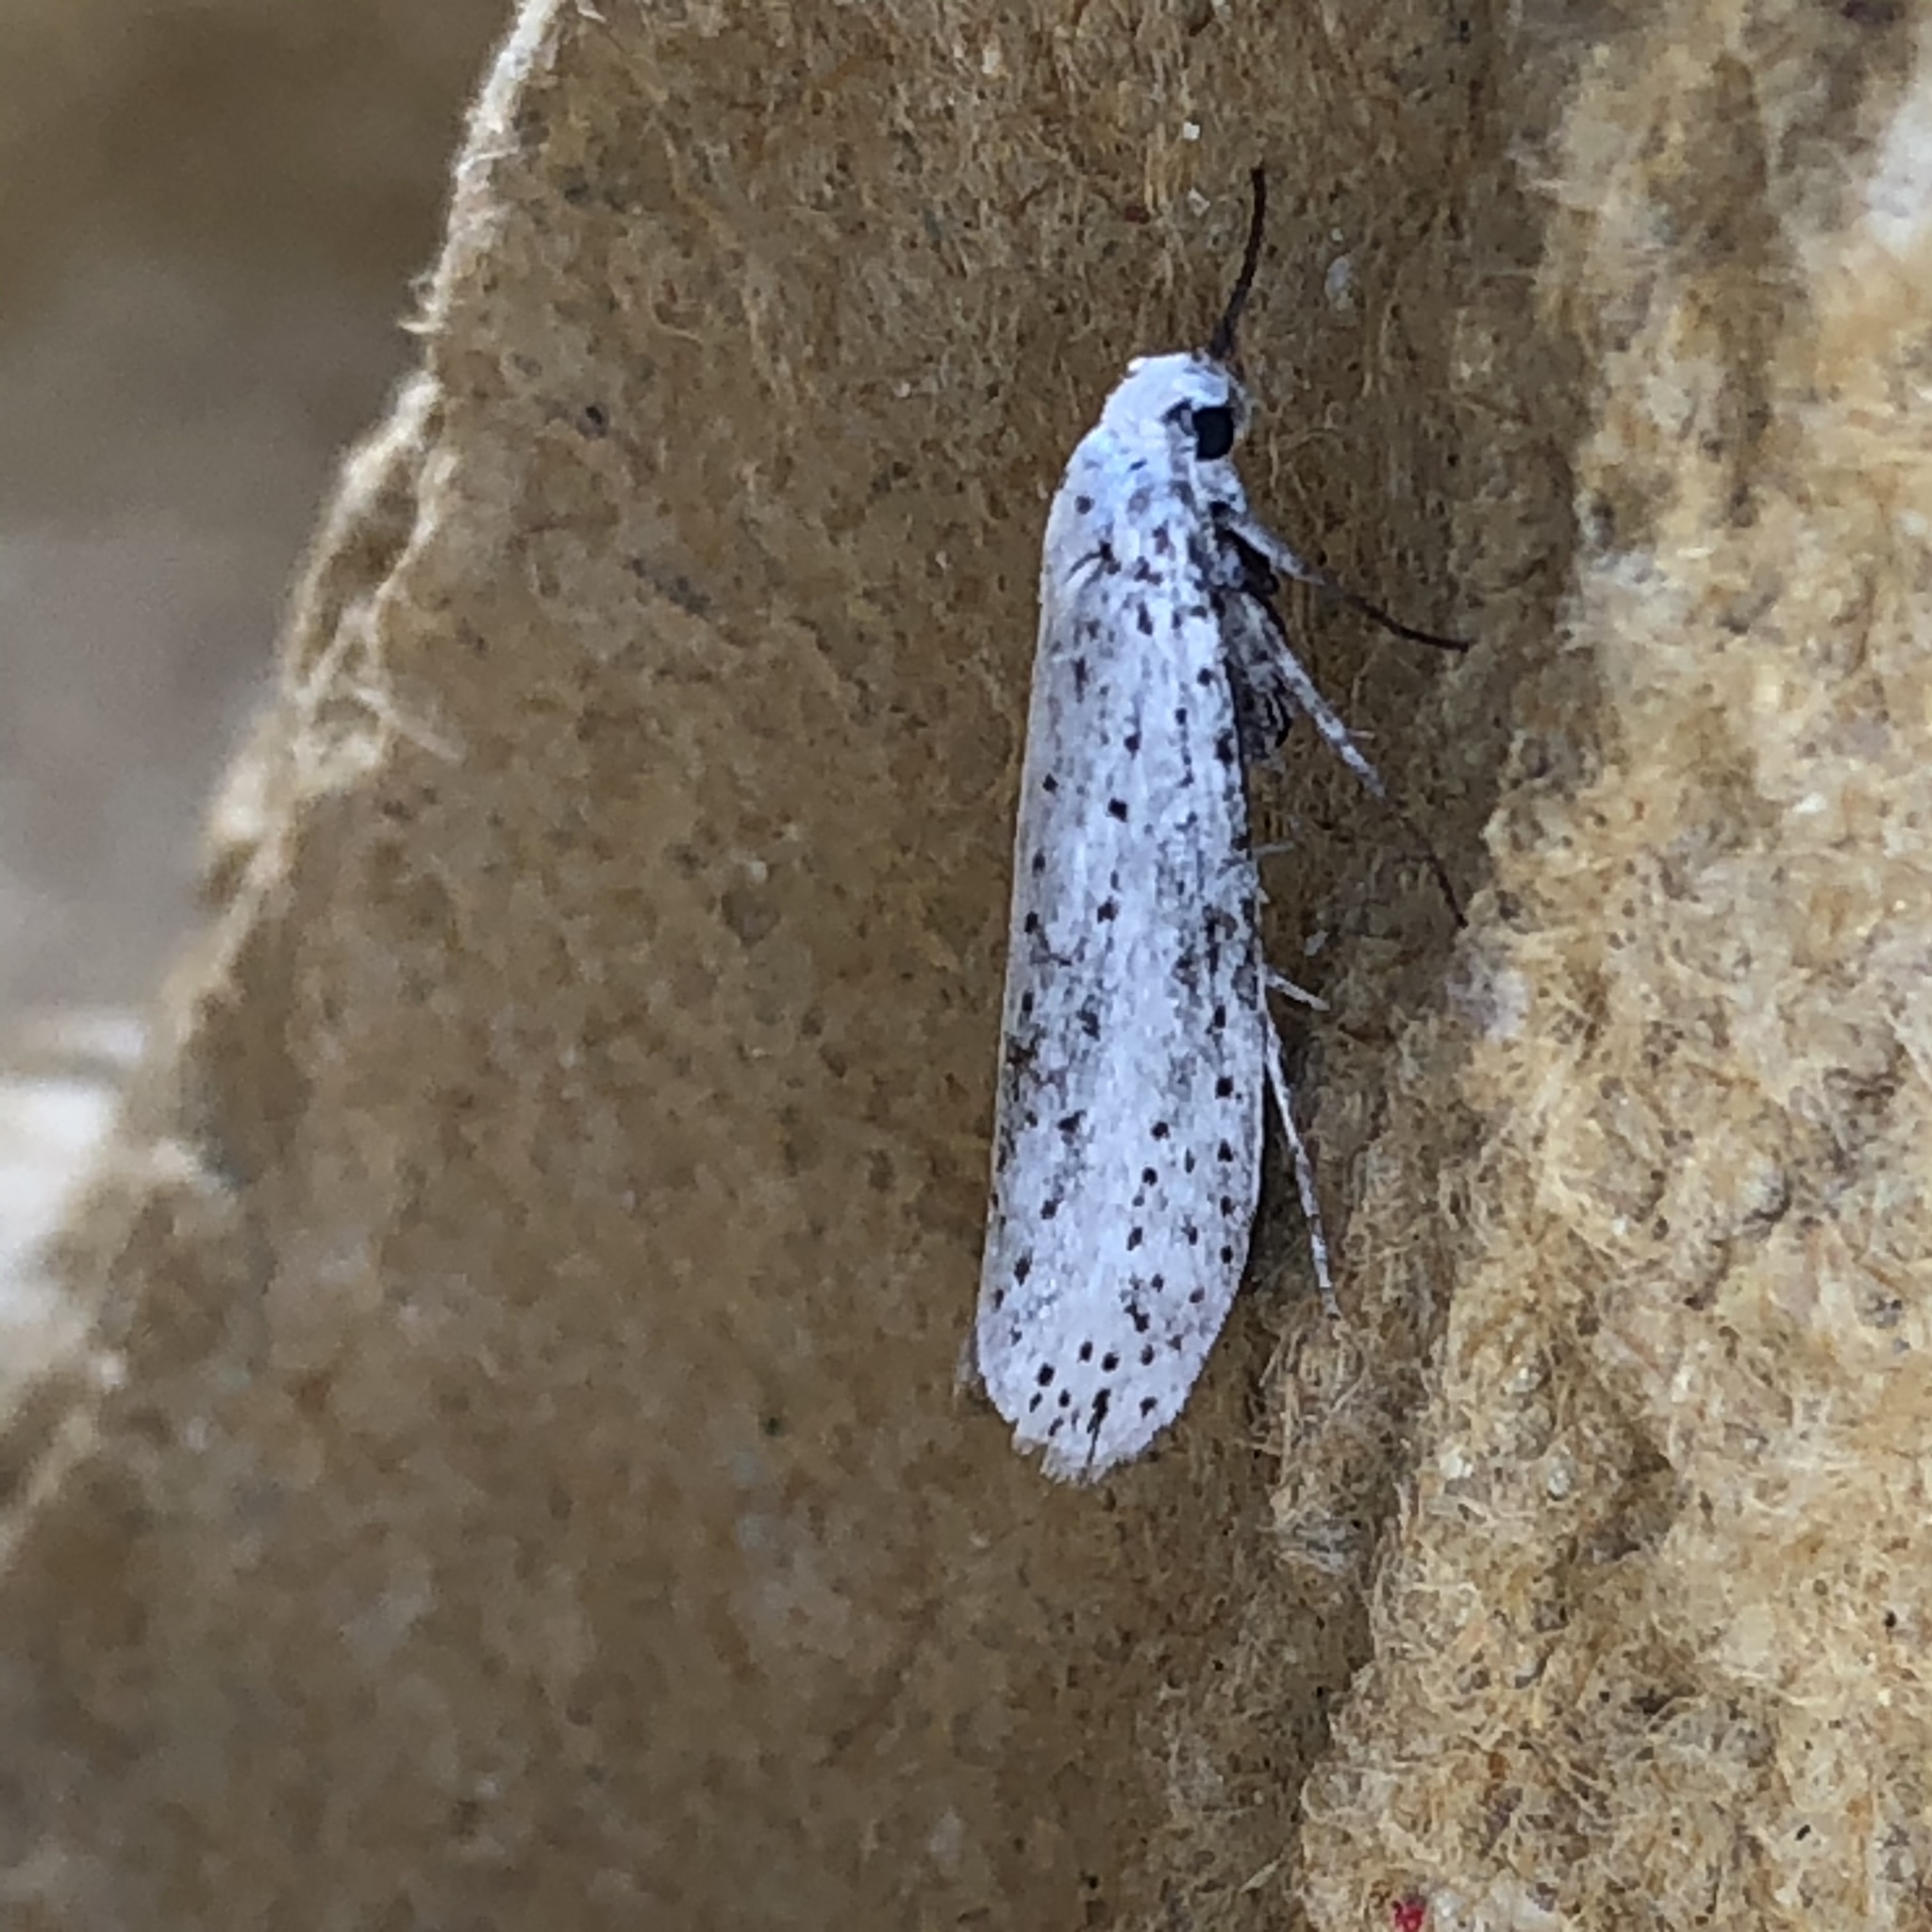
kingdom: Animalia
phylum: Arthropoda
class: Insecta
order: Lepidoptera
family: Yponomeutidae
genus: Yponomeuta
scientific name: Yponomeuta evonymella
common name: Bird-cherry ermine
